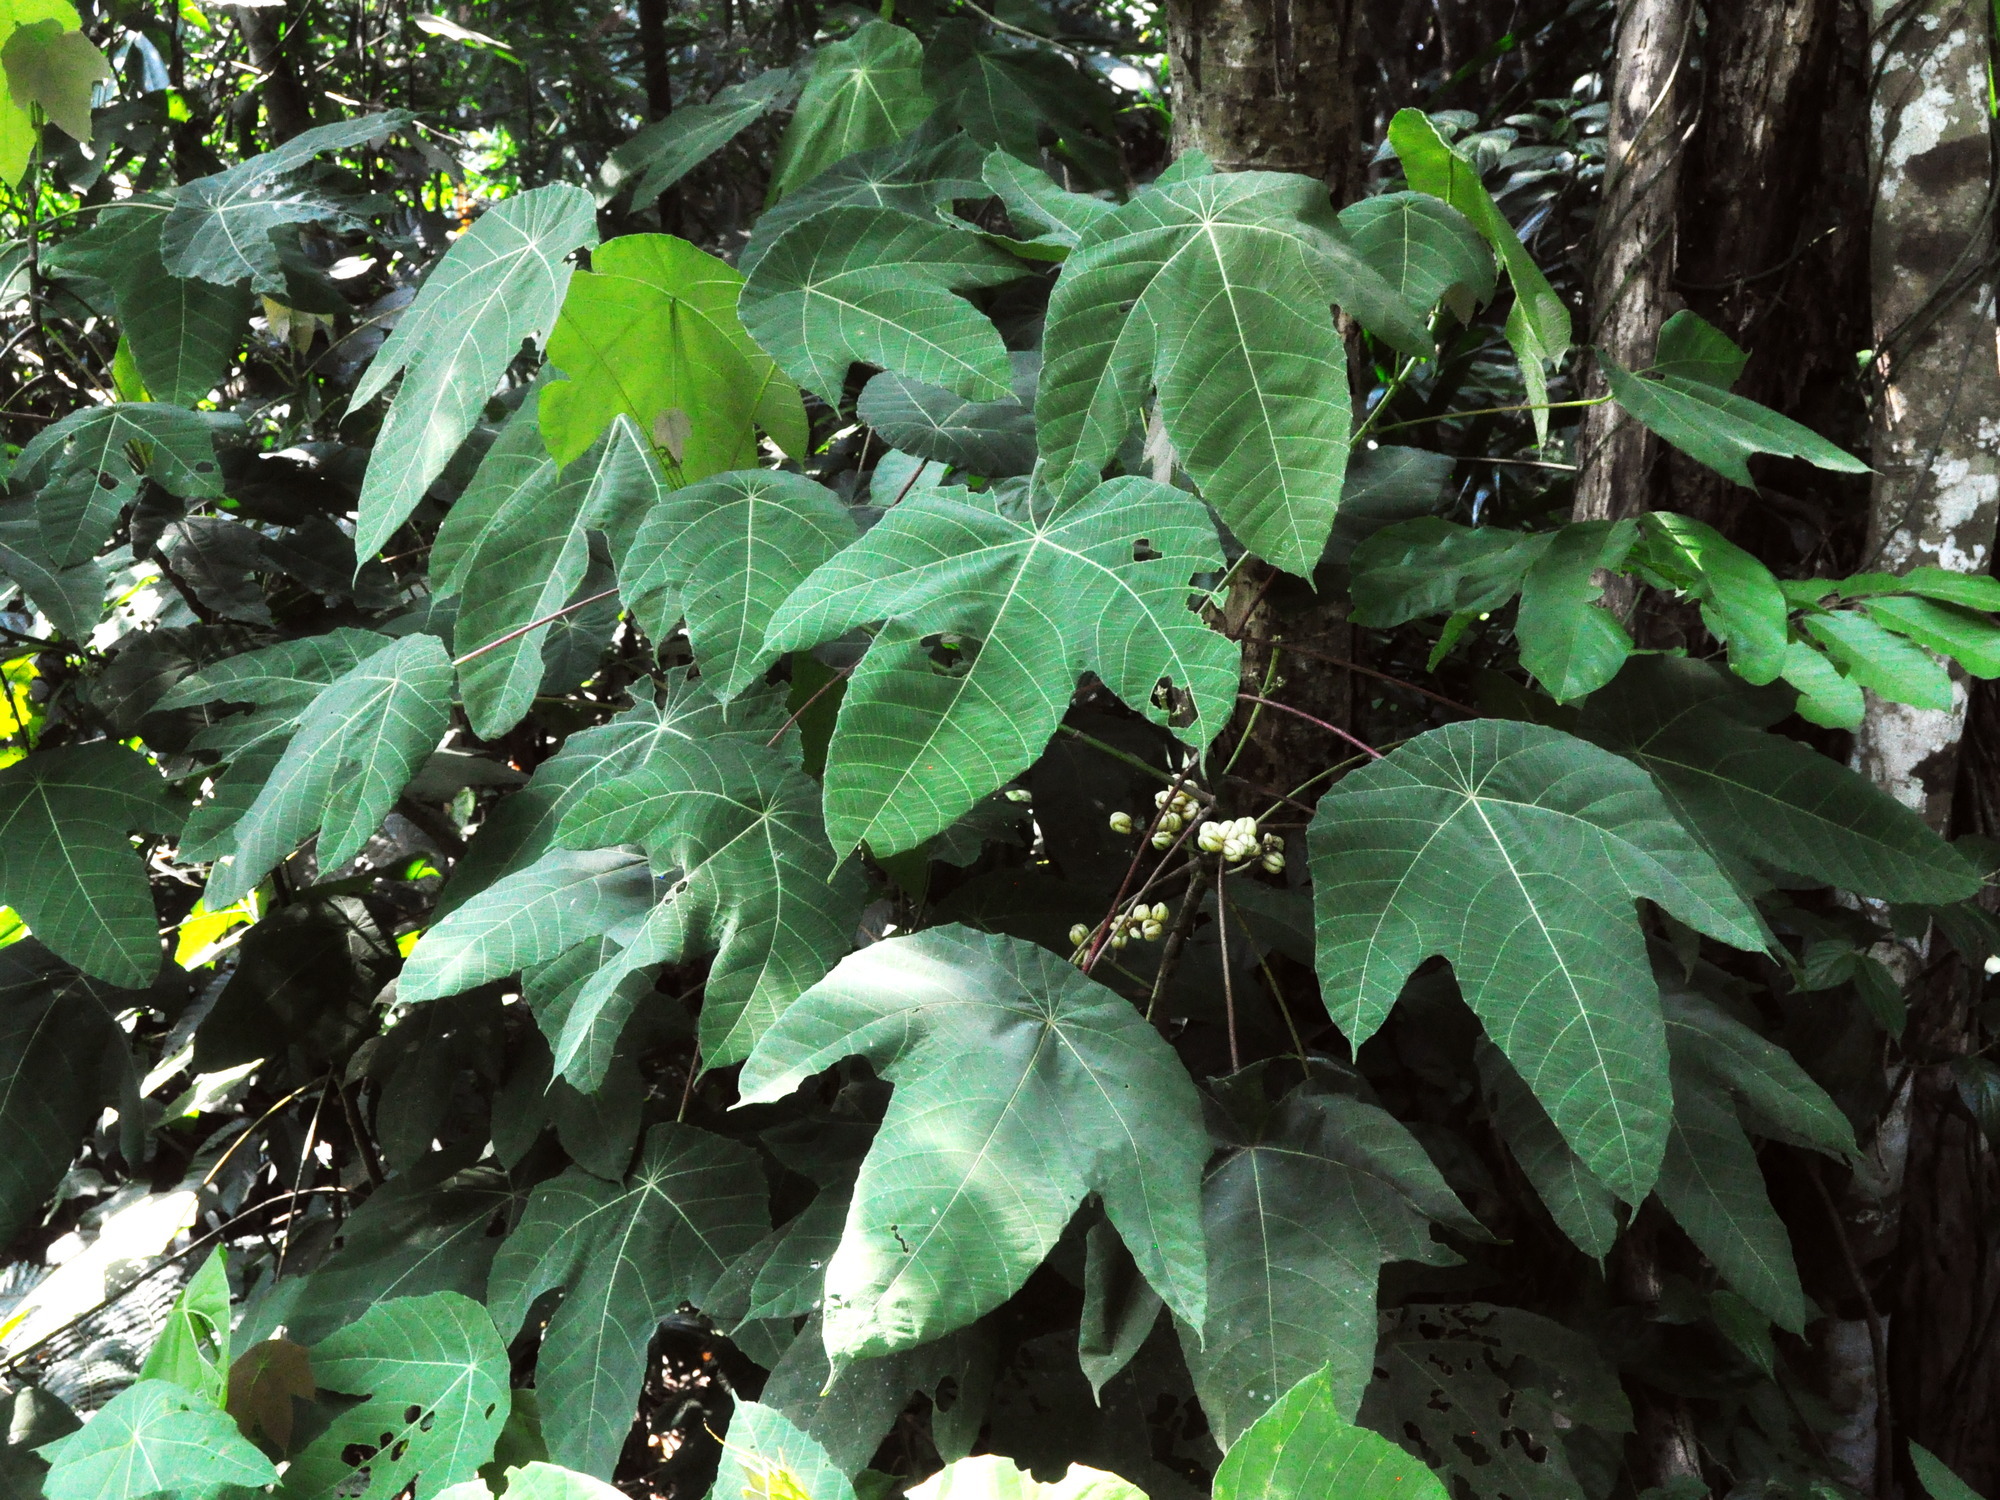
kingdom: Plantae
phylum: Tracheophyta
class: Magnoliopsida
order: Malpighiales
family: Euphorbiaceae
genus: Macaranga
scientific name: Macaranga triloba
